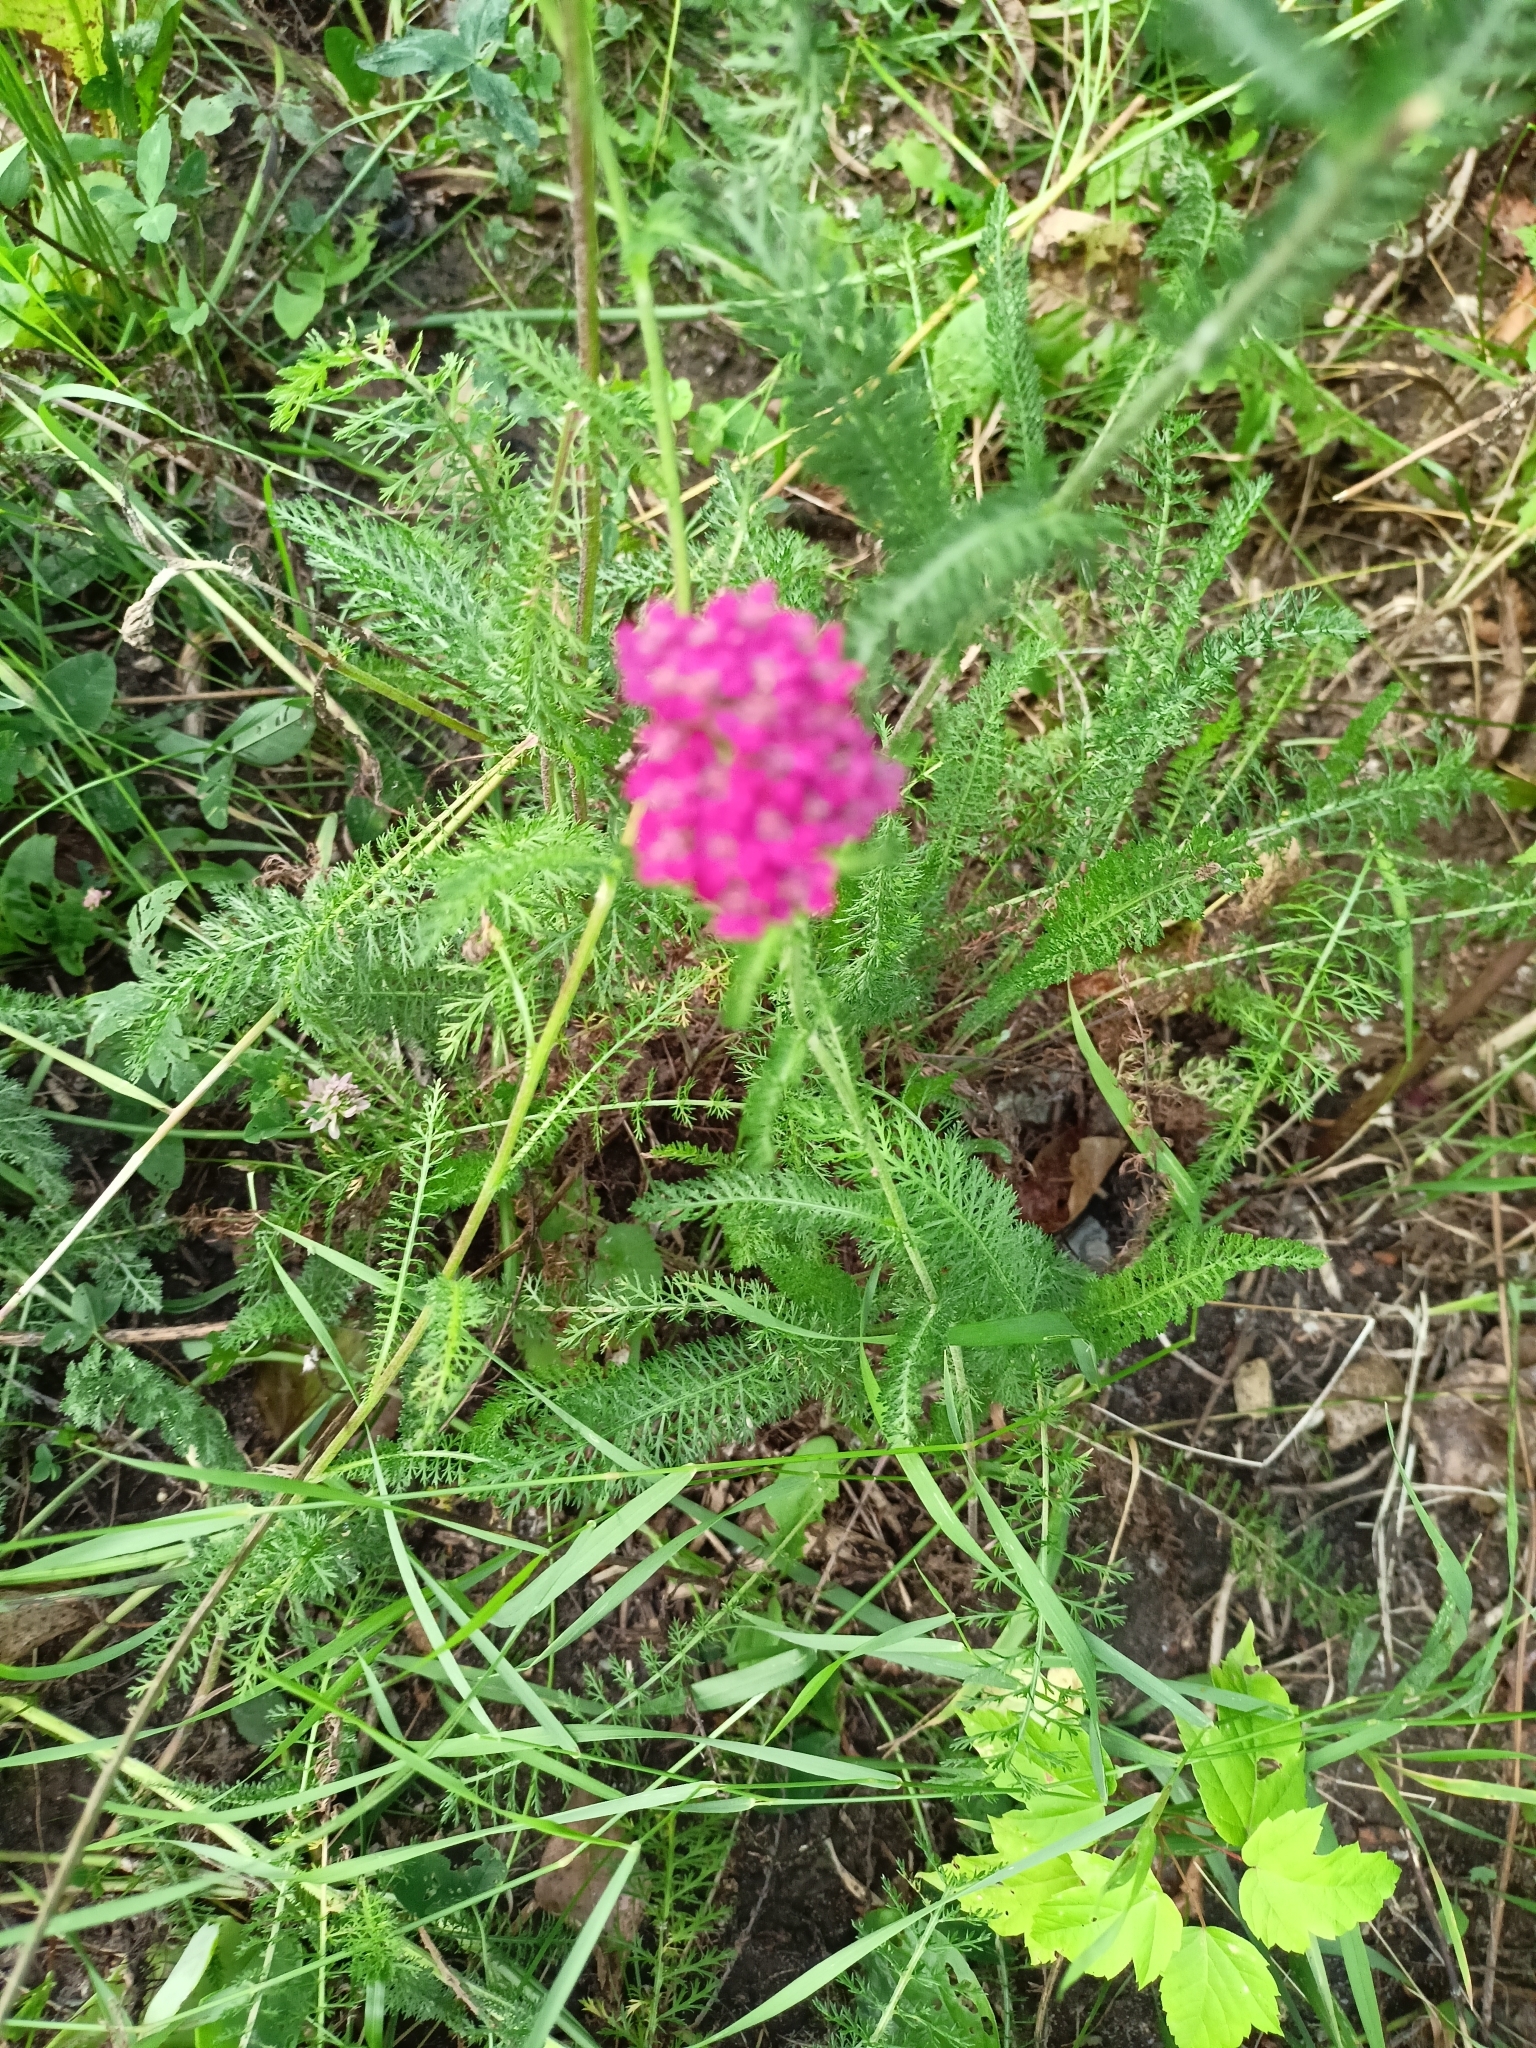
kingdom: Plantae
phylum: Tracheophyta
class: Magnoliopsida
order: Asterales
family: Asteraceae
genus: Achillea
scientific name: Achillea millefolium
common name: Yarrow
